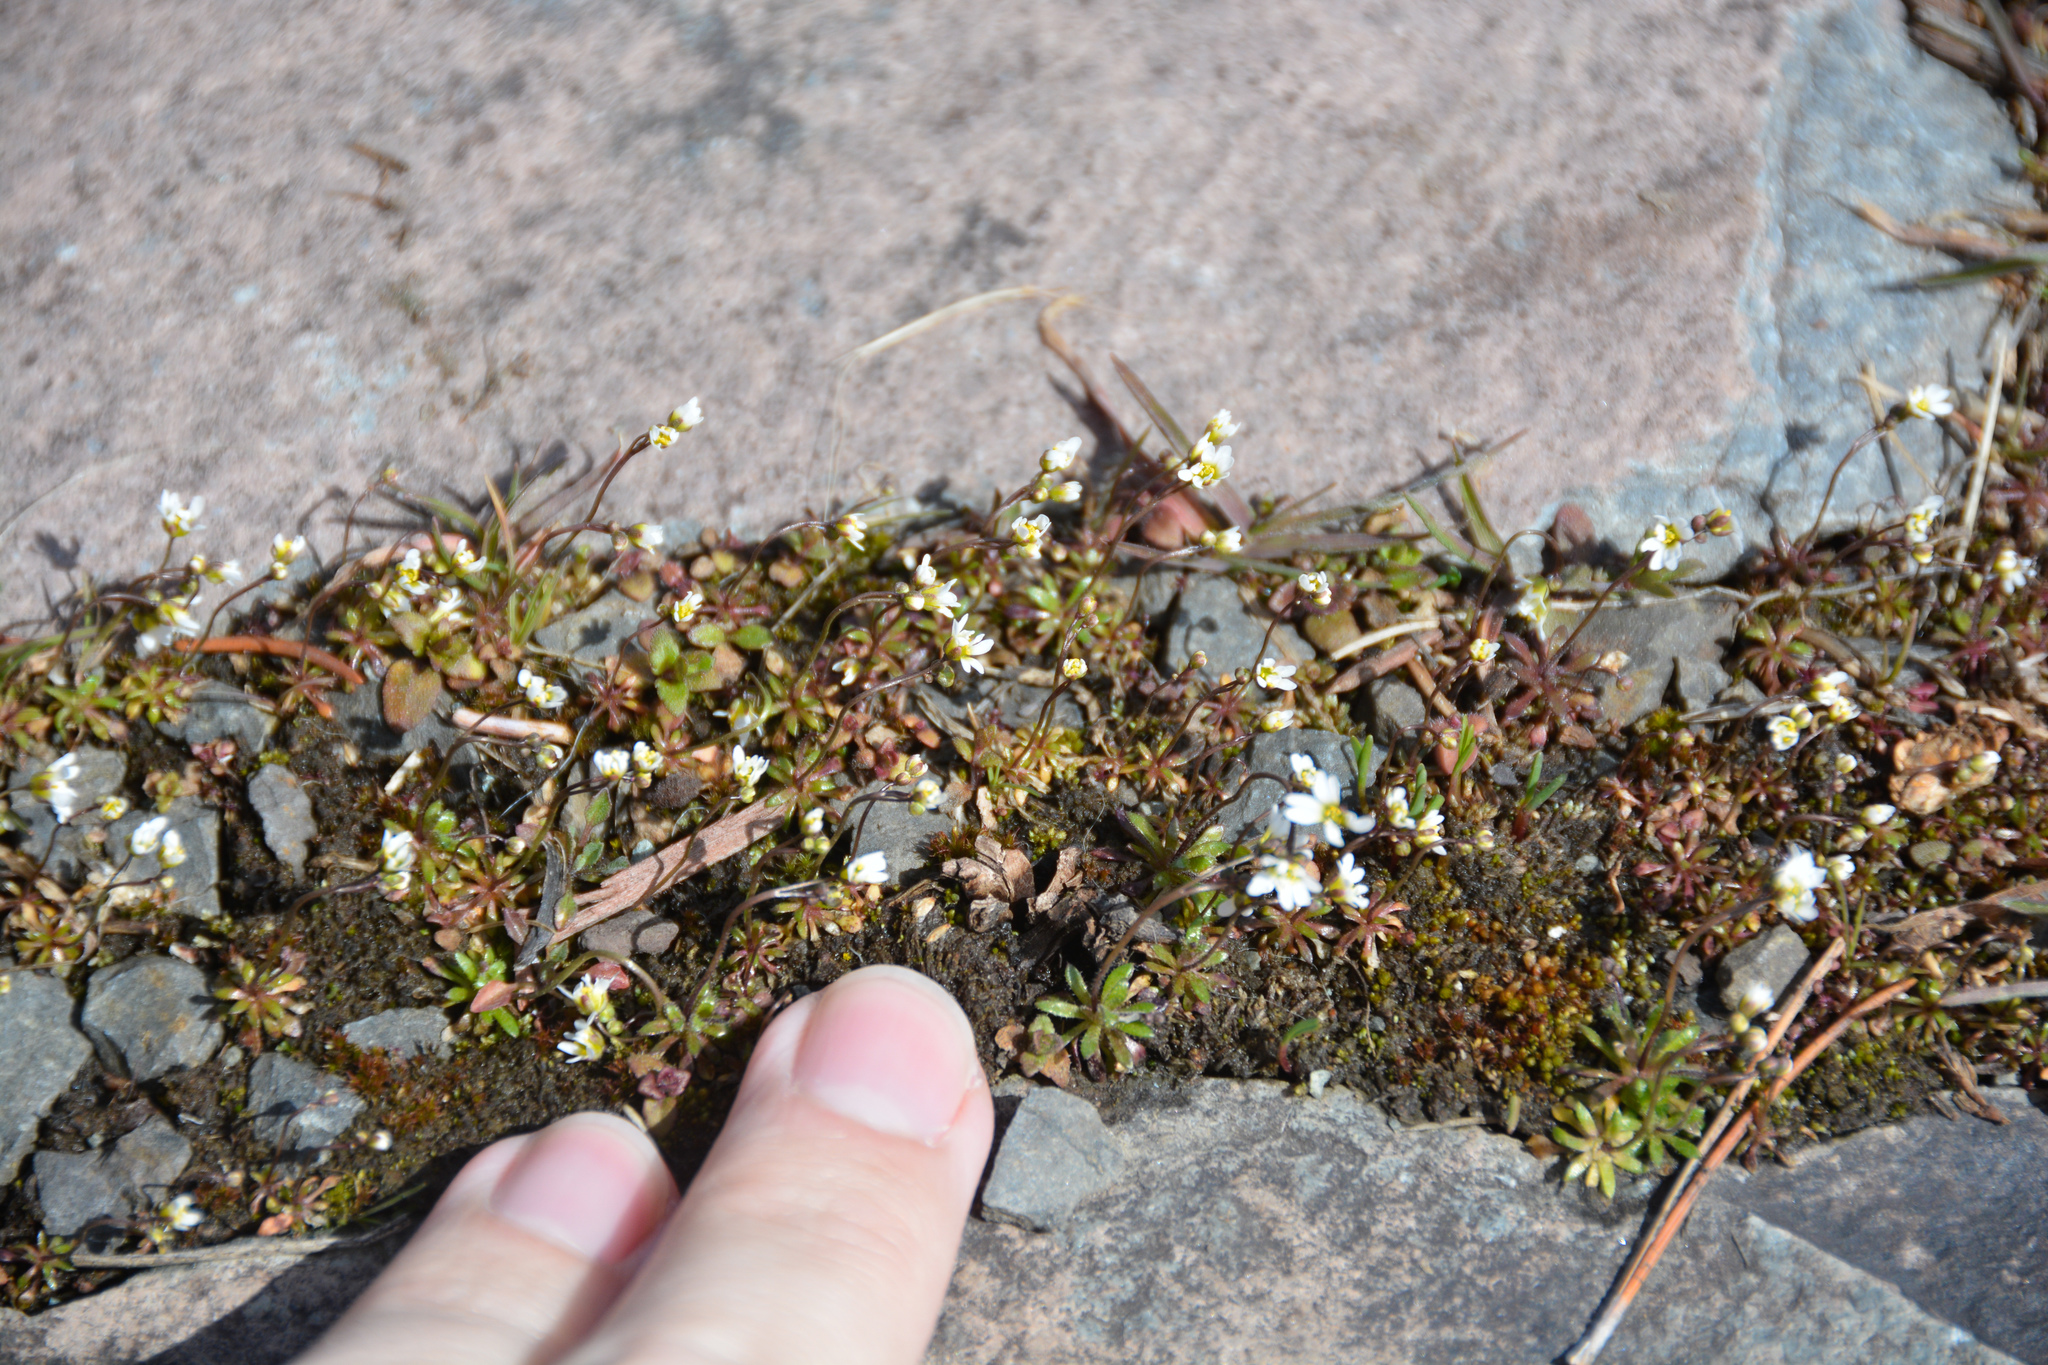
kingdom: Plantae
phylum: Tracheophyta
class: Magnoliopsida
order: Brassicales
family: Brassicaceae
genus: Draba
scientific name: Draba verna
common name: Spring draba
